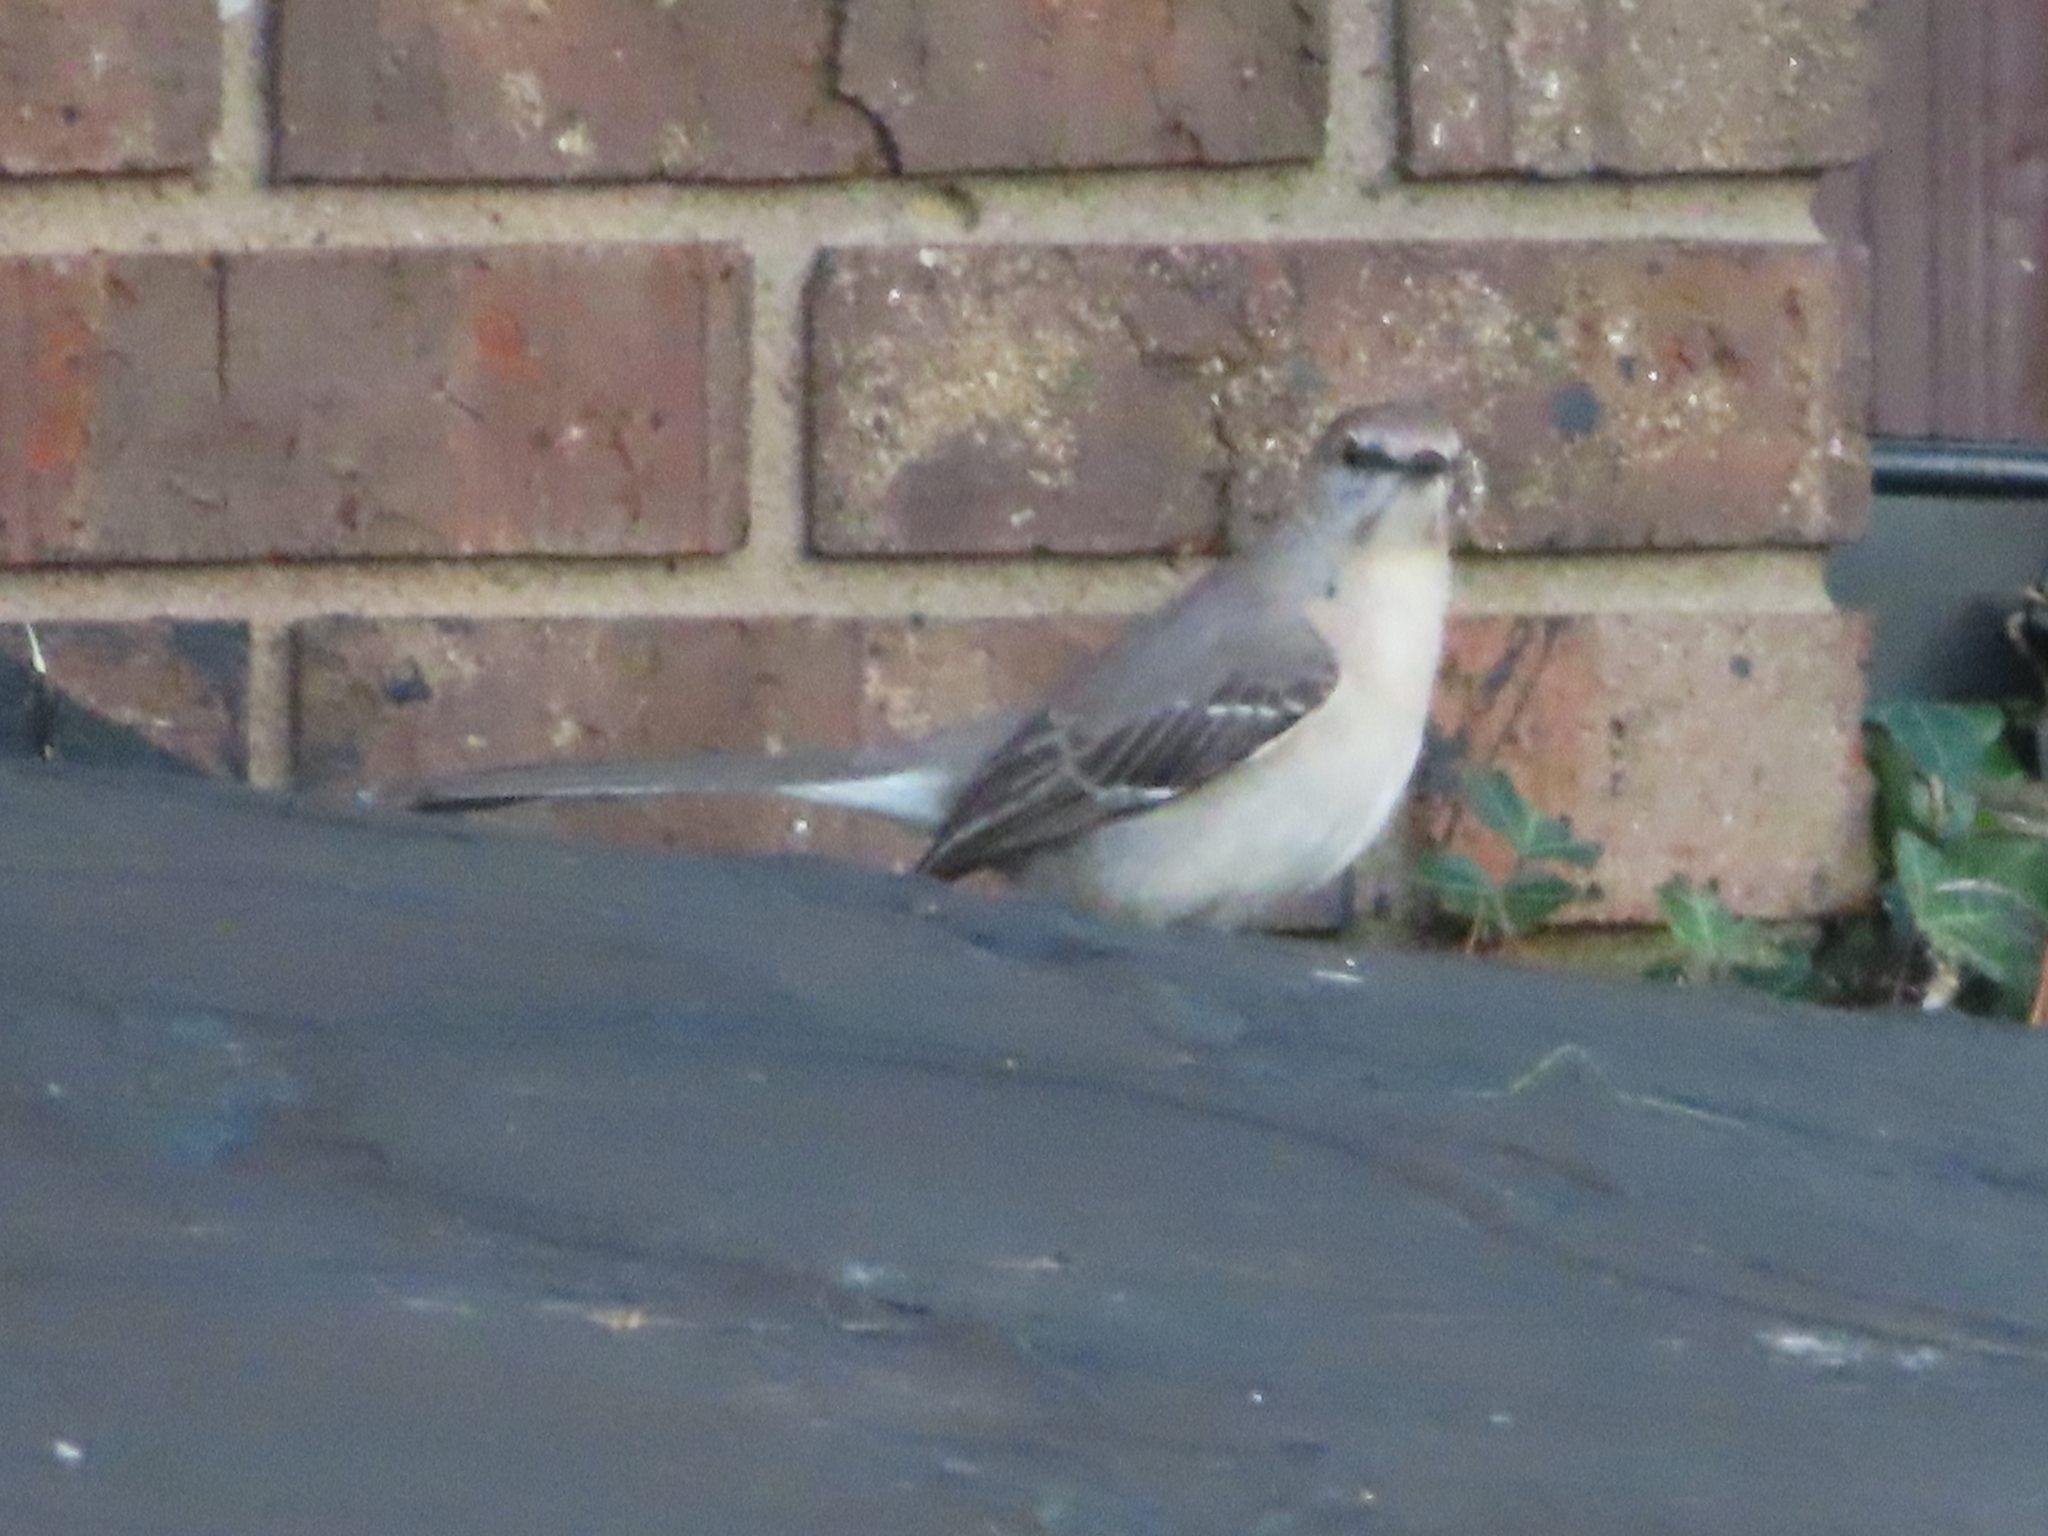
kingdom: Animalia
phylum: Chordata
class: Aves
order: Passeriformes
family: Mimidae
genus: Mimus
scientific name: Mimus polyglottos
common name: Northern mockingbird
